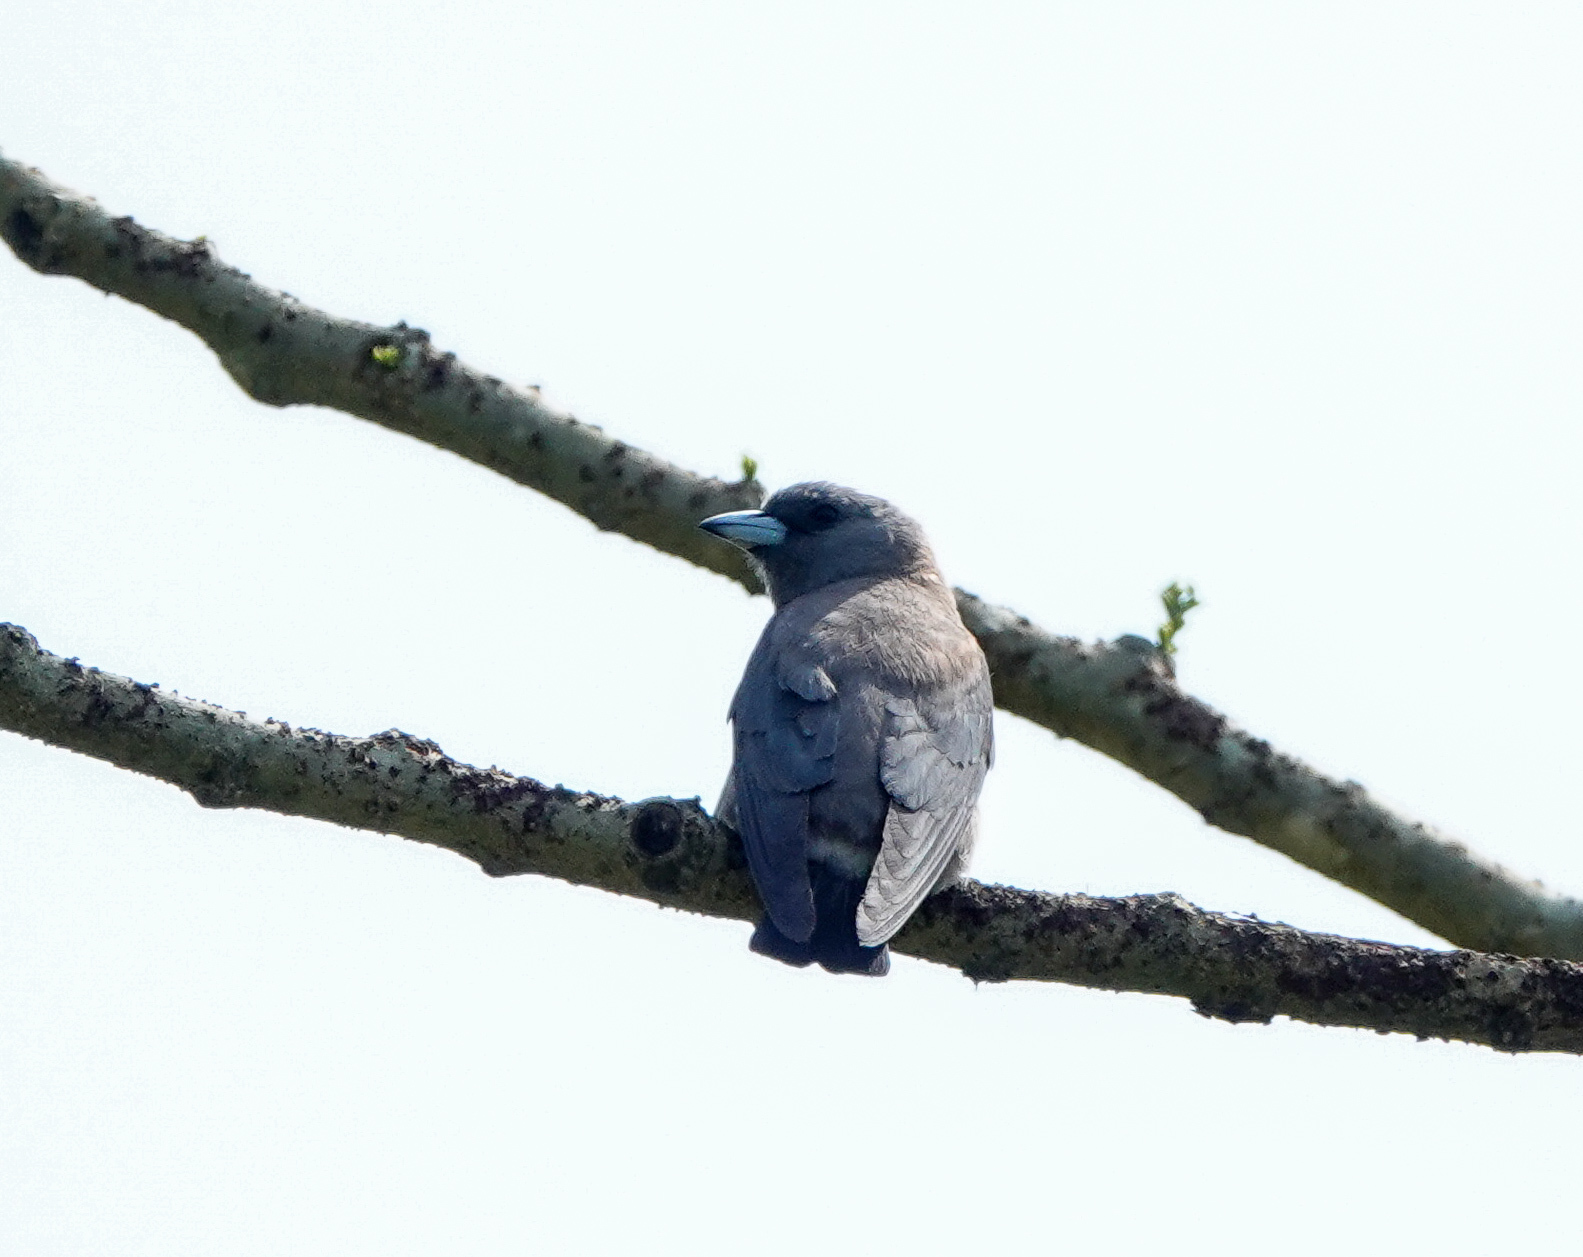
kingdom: Animalia
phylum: Chordata
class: Aves
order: Passeriformes
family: Artamidae
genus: Artamus
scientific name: Artamus fuscus
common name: Ashy woodswallow
